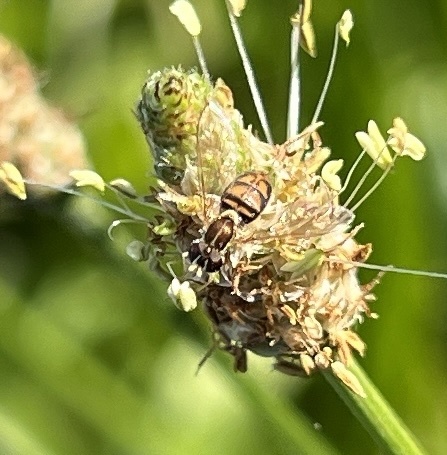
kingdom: Animalia
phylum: Arthropoda
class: Insecta
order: Diptera
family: Syrphidae
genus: Toxomerus
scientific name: Toxomerus marginatus
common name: Syrphid fly
